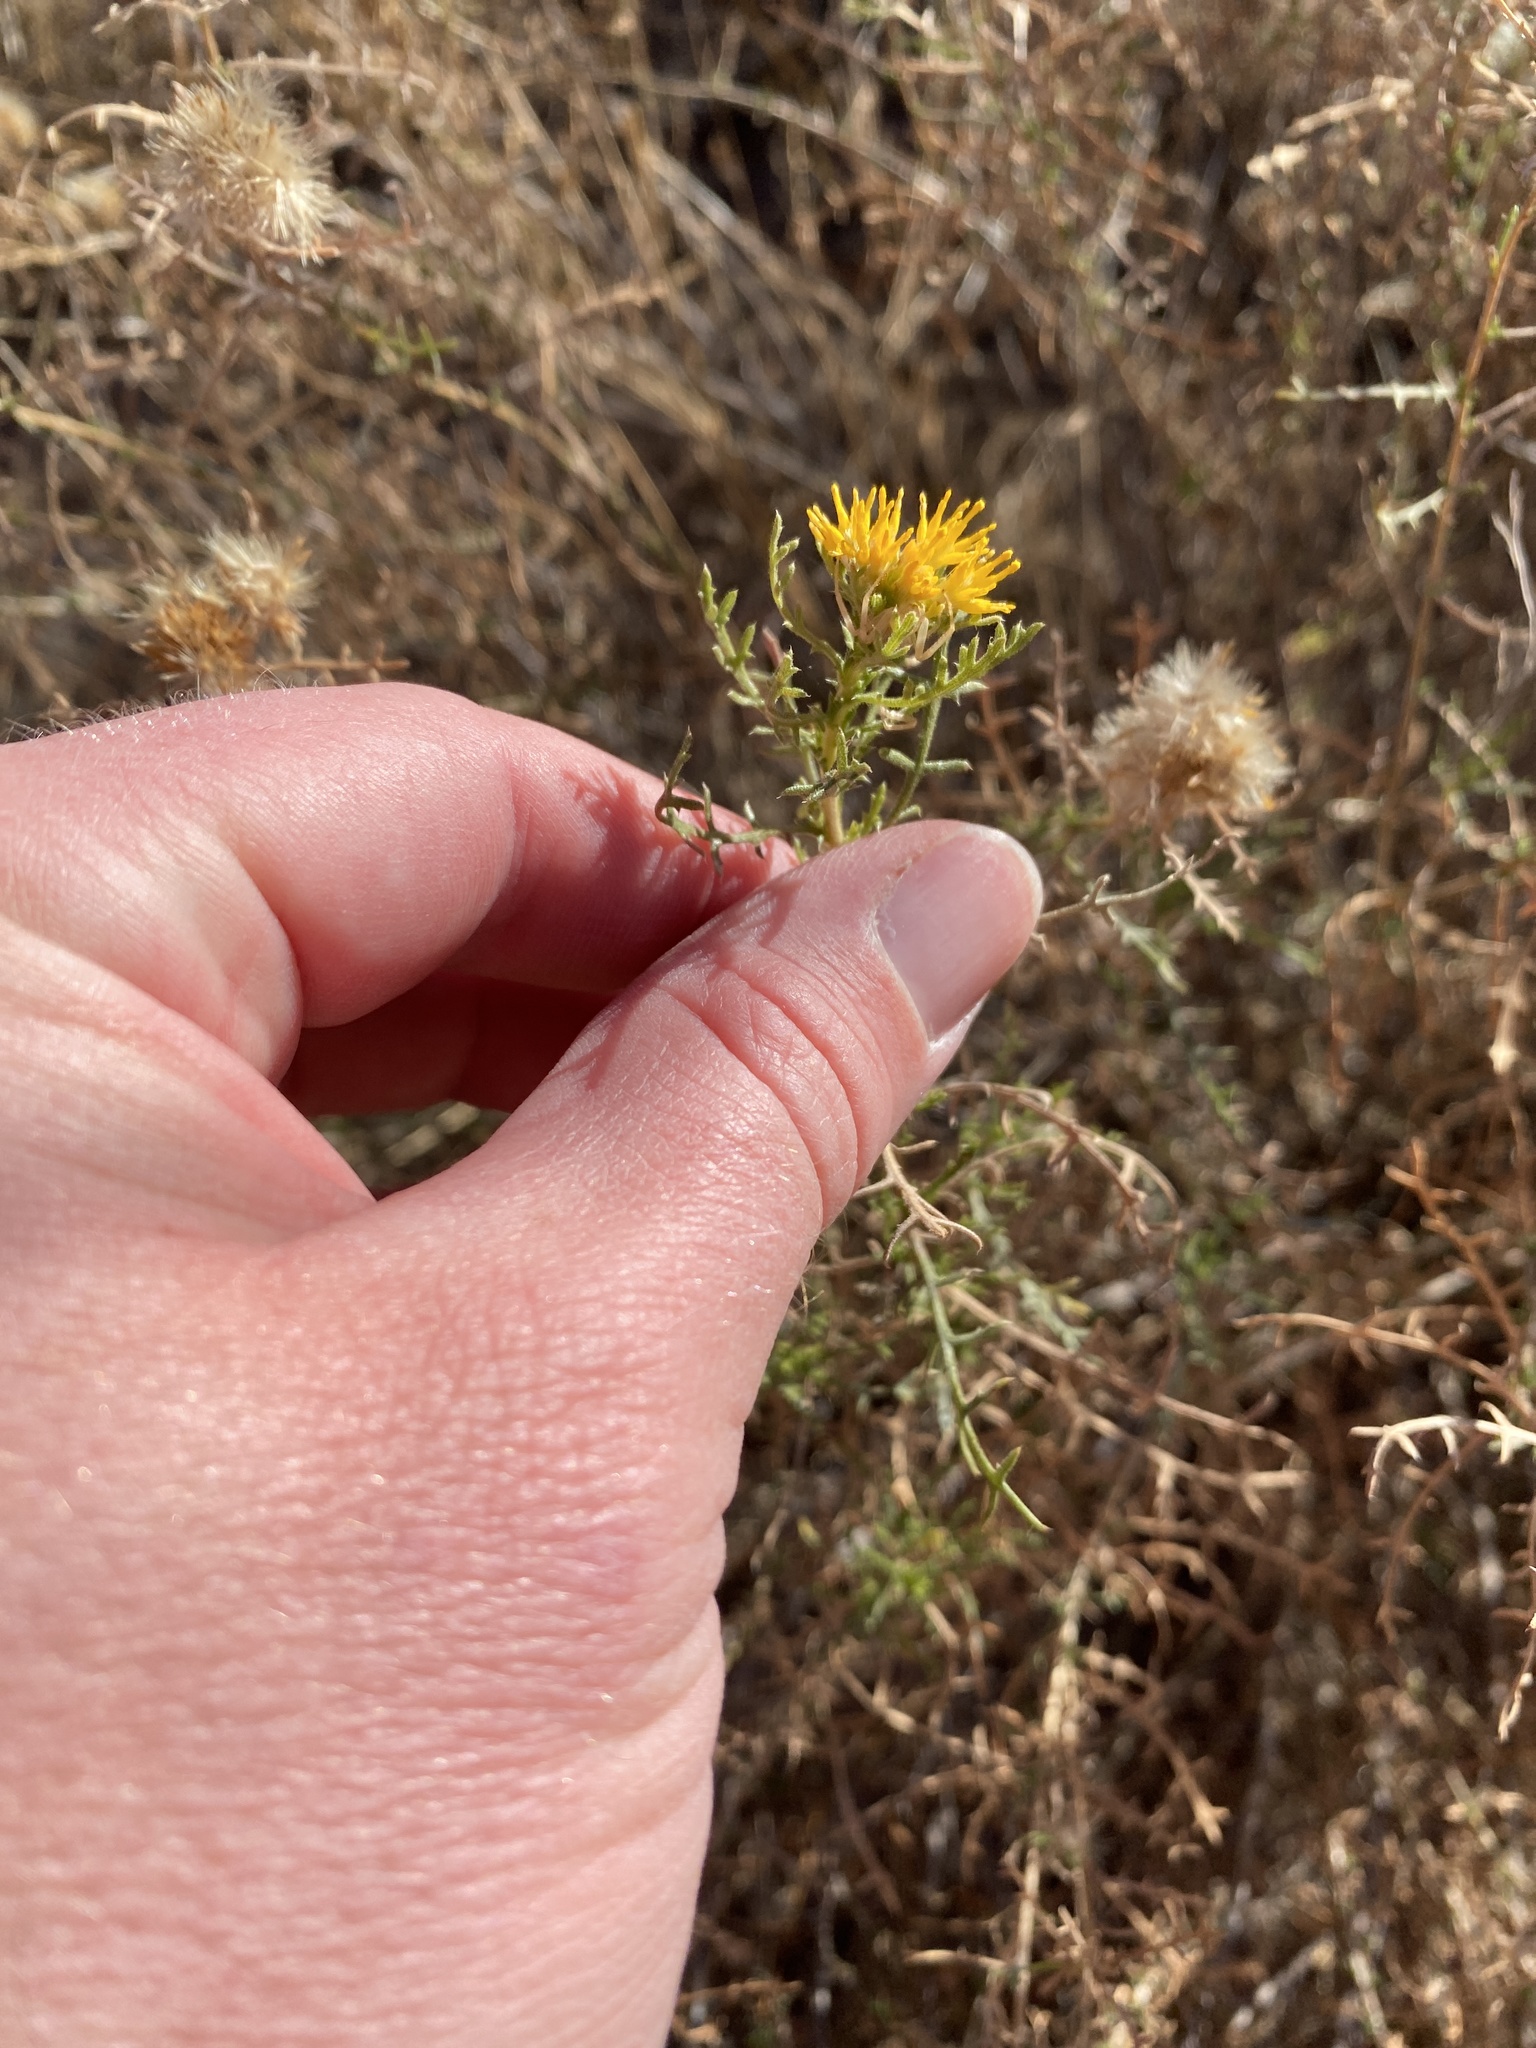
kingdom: Plantae
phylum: Tracheophyta
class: Magnoliopsida
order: Asterales
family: Asteraceae
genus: Isocoma
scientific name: Isocoma tenuisecta
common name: Burroweed
